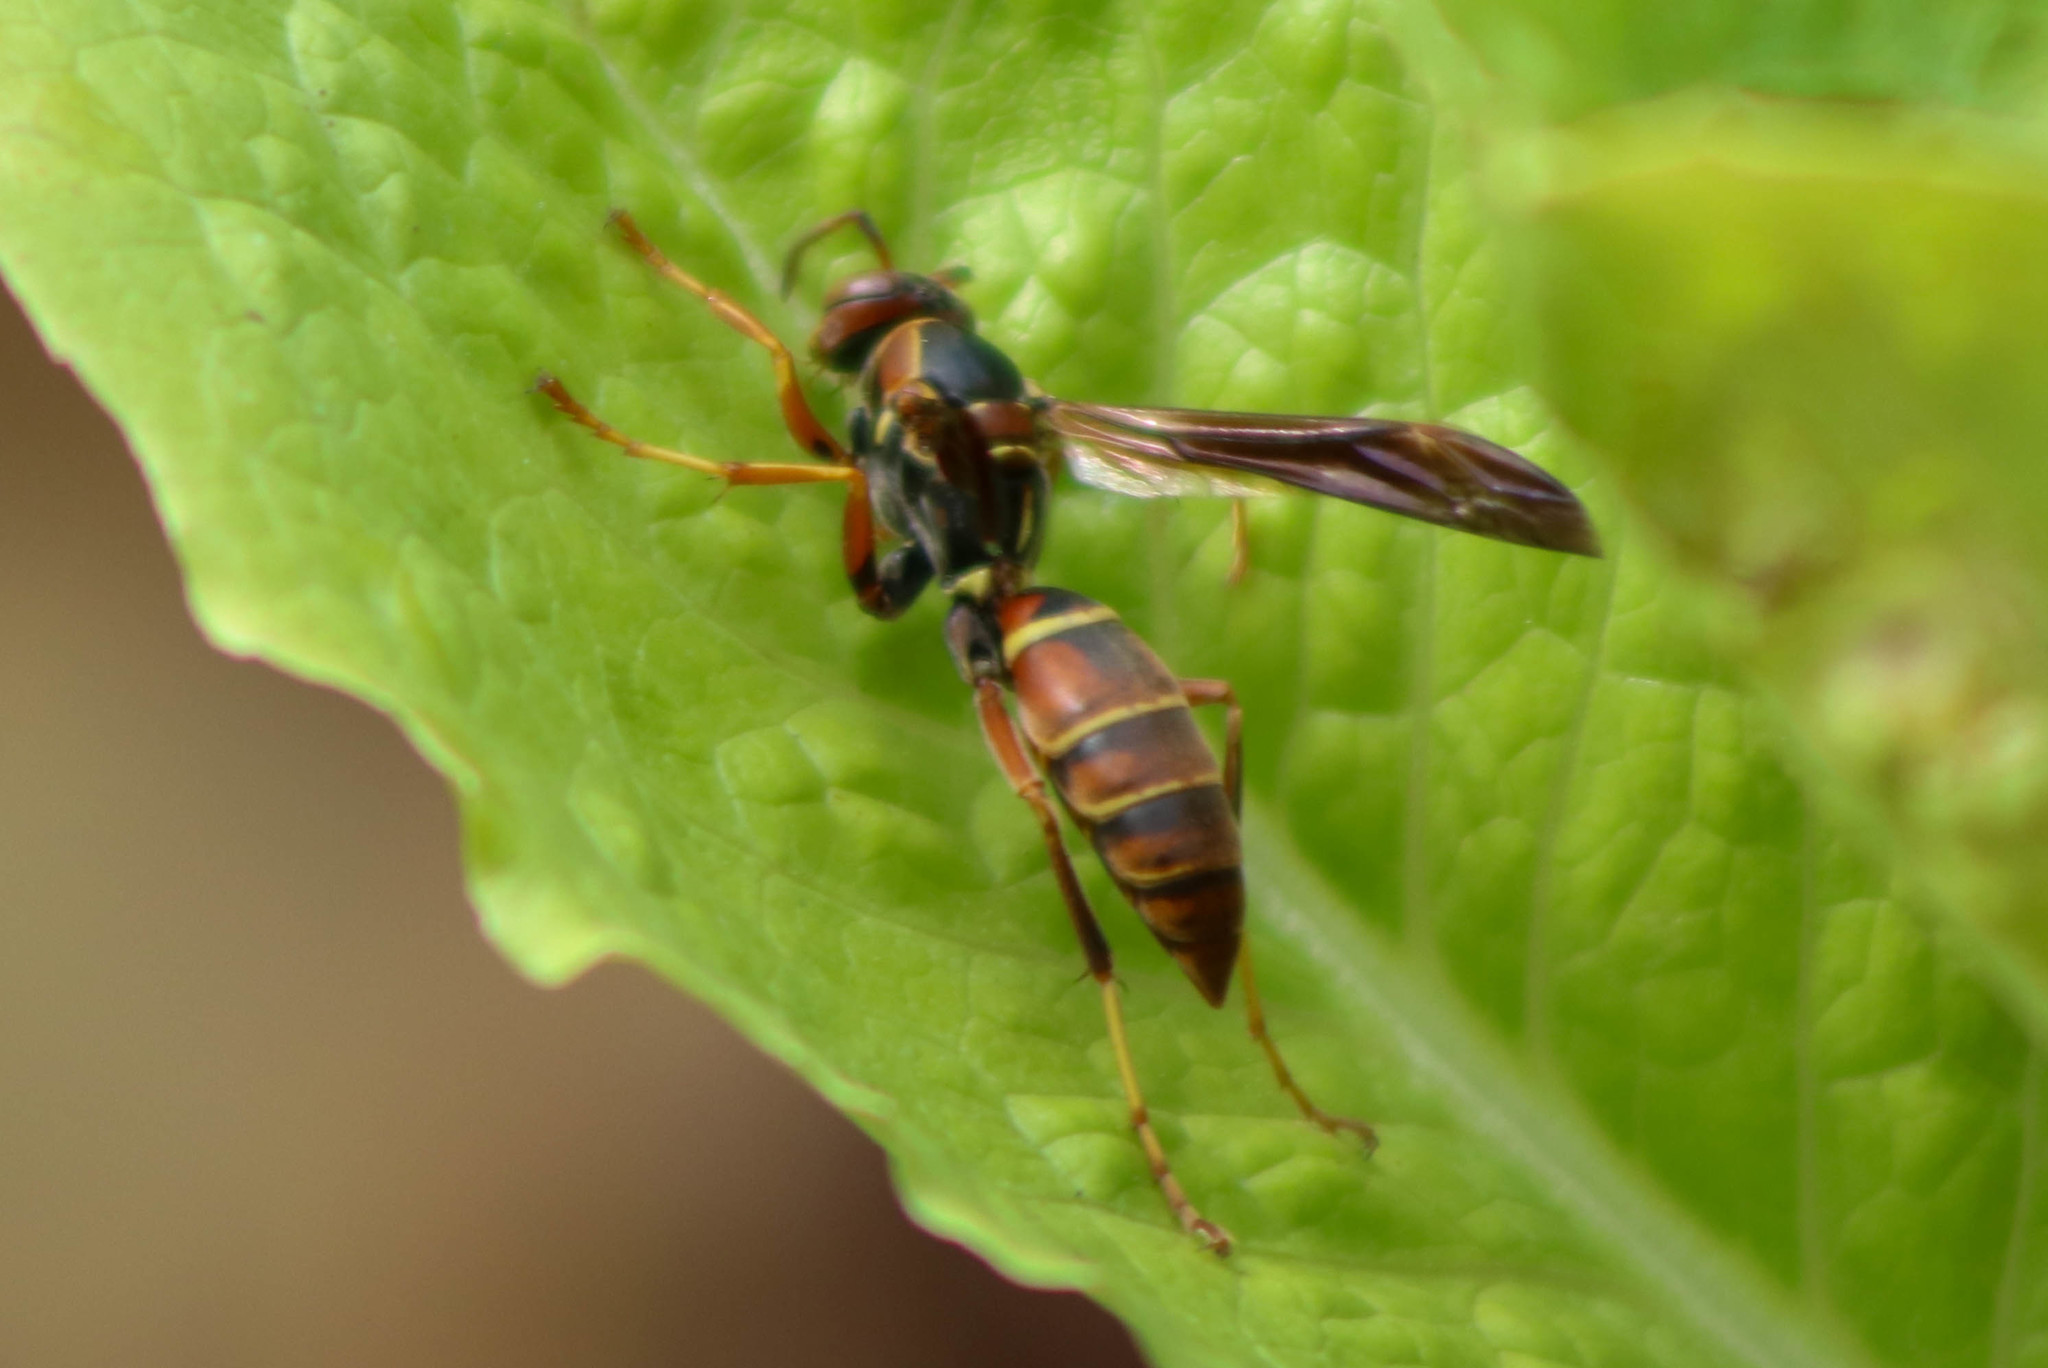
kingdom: Animalia
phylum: Arthropoda
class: Insecta
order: Hymenoptera
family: Eumenidae
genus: Polistes
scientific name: Polistes fuscatus
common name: Dark paper wasp
